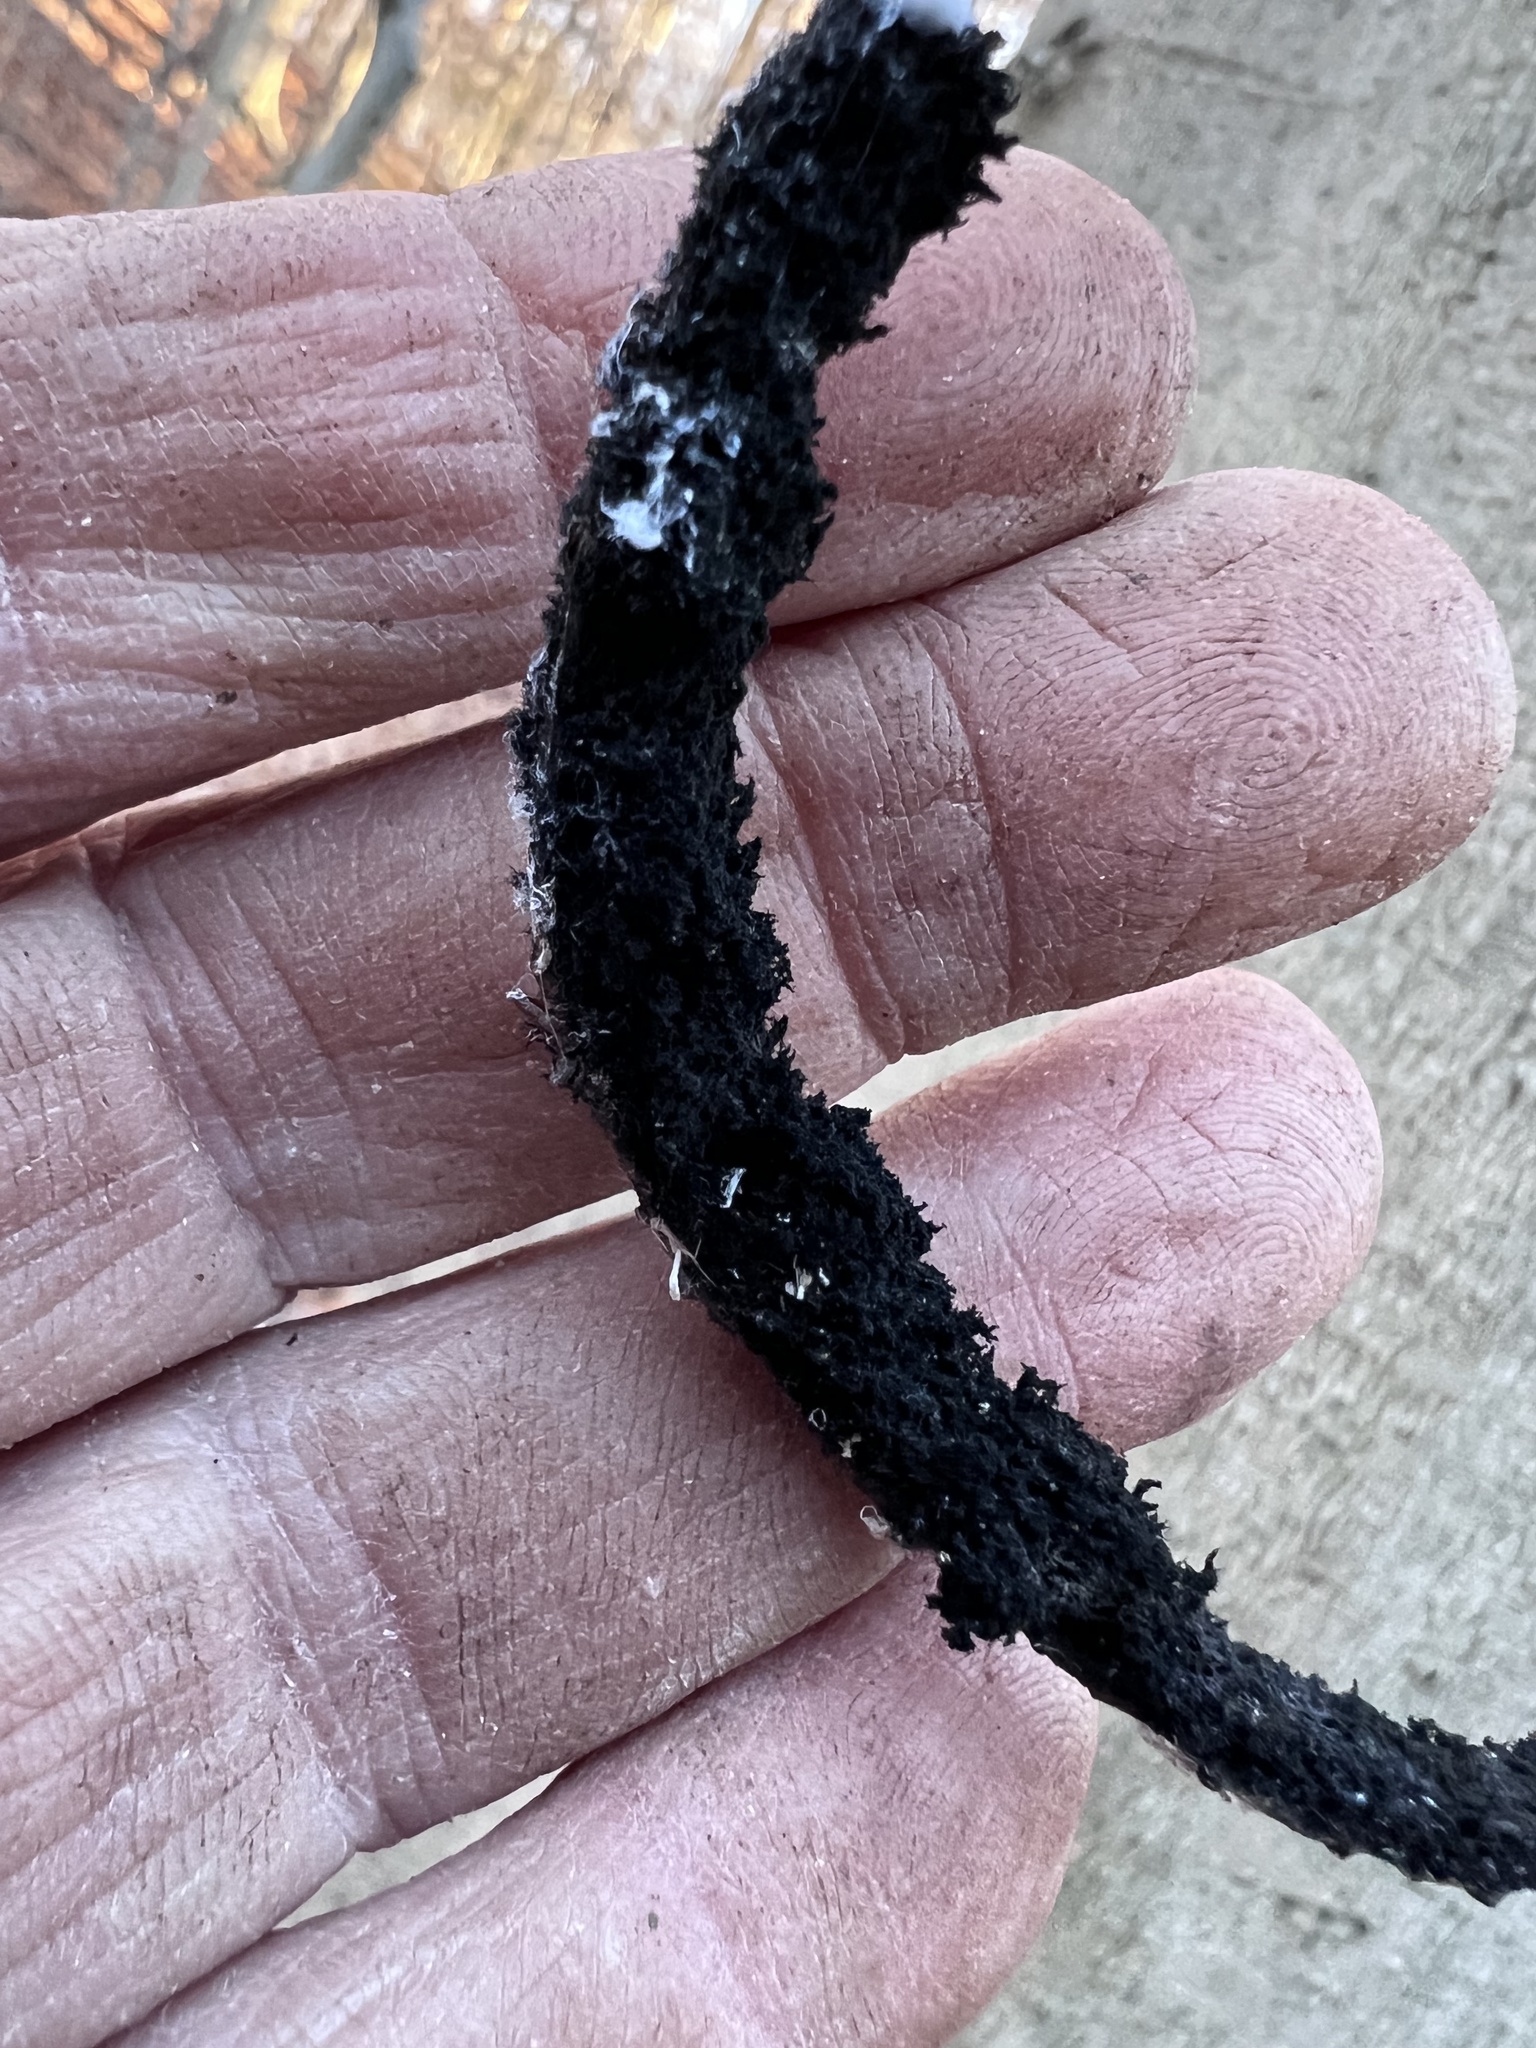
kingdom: Fungi
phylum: Ascomycota
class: Dothideomycetes
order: Capnodiales
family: Capnodiaceae
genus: Scorias
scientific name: Scorias spongiosa
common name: Black sooty mold
